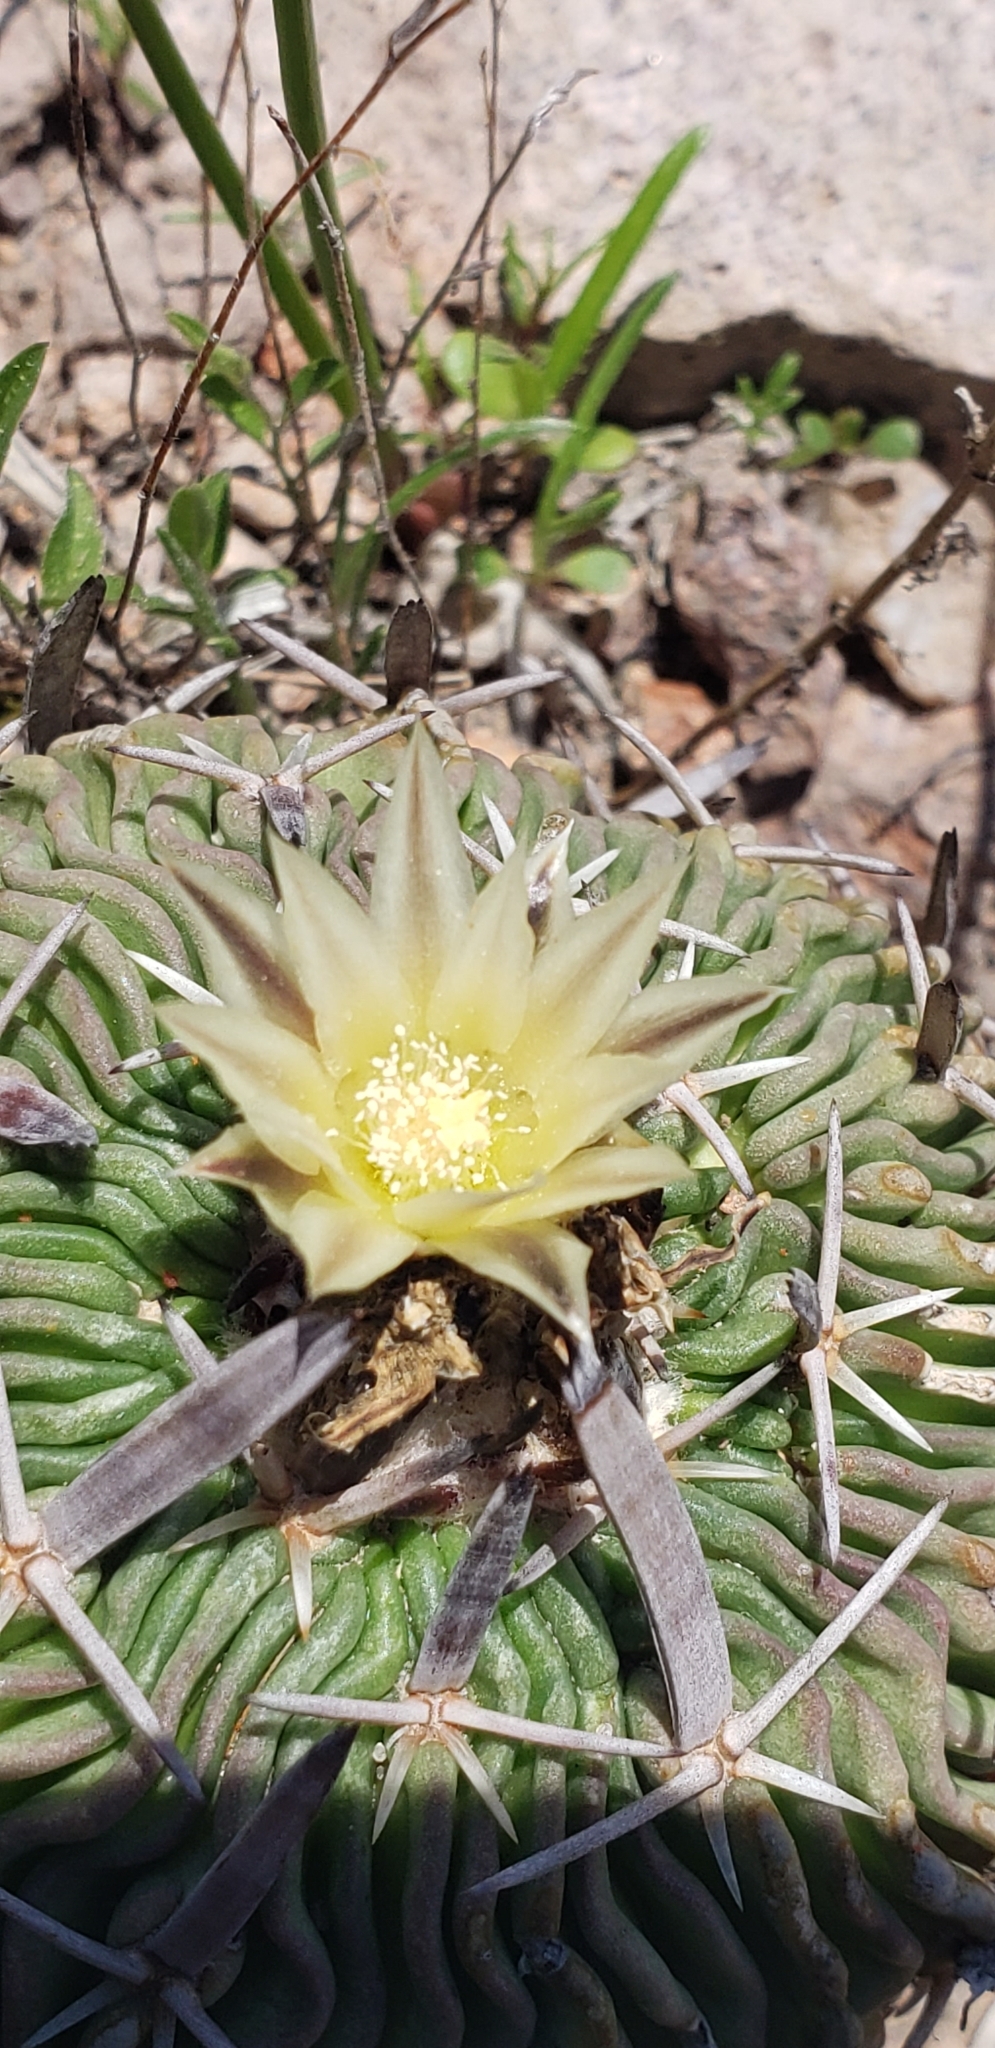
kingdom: Plantae
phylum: Tracheophyta
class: Magnoliopsida
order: Caryophyllales
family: Cactaceae
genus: Stenocactus
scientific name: Stenocactus phyllacanthus
